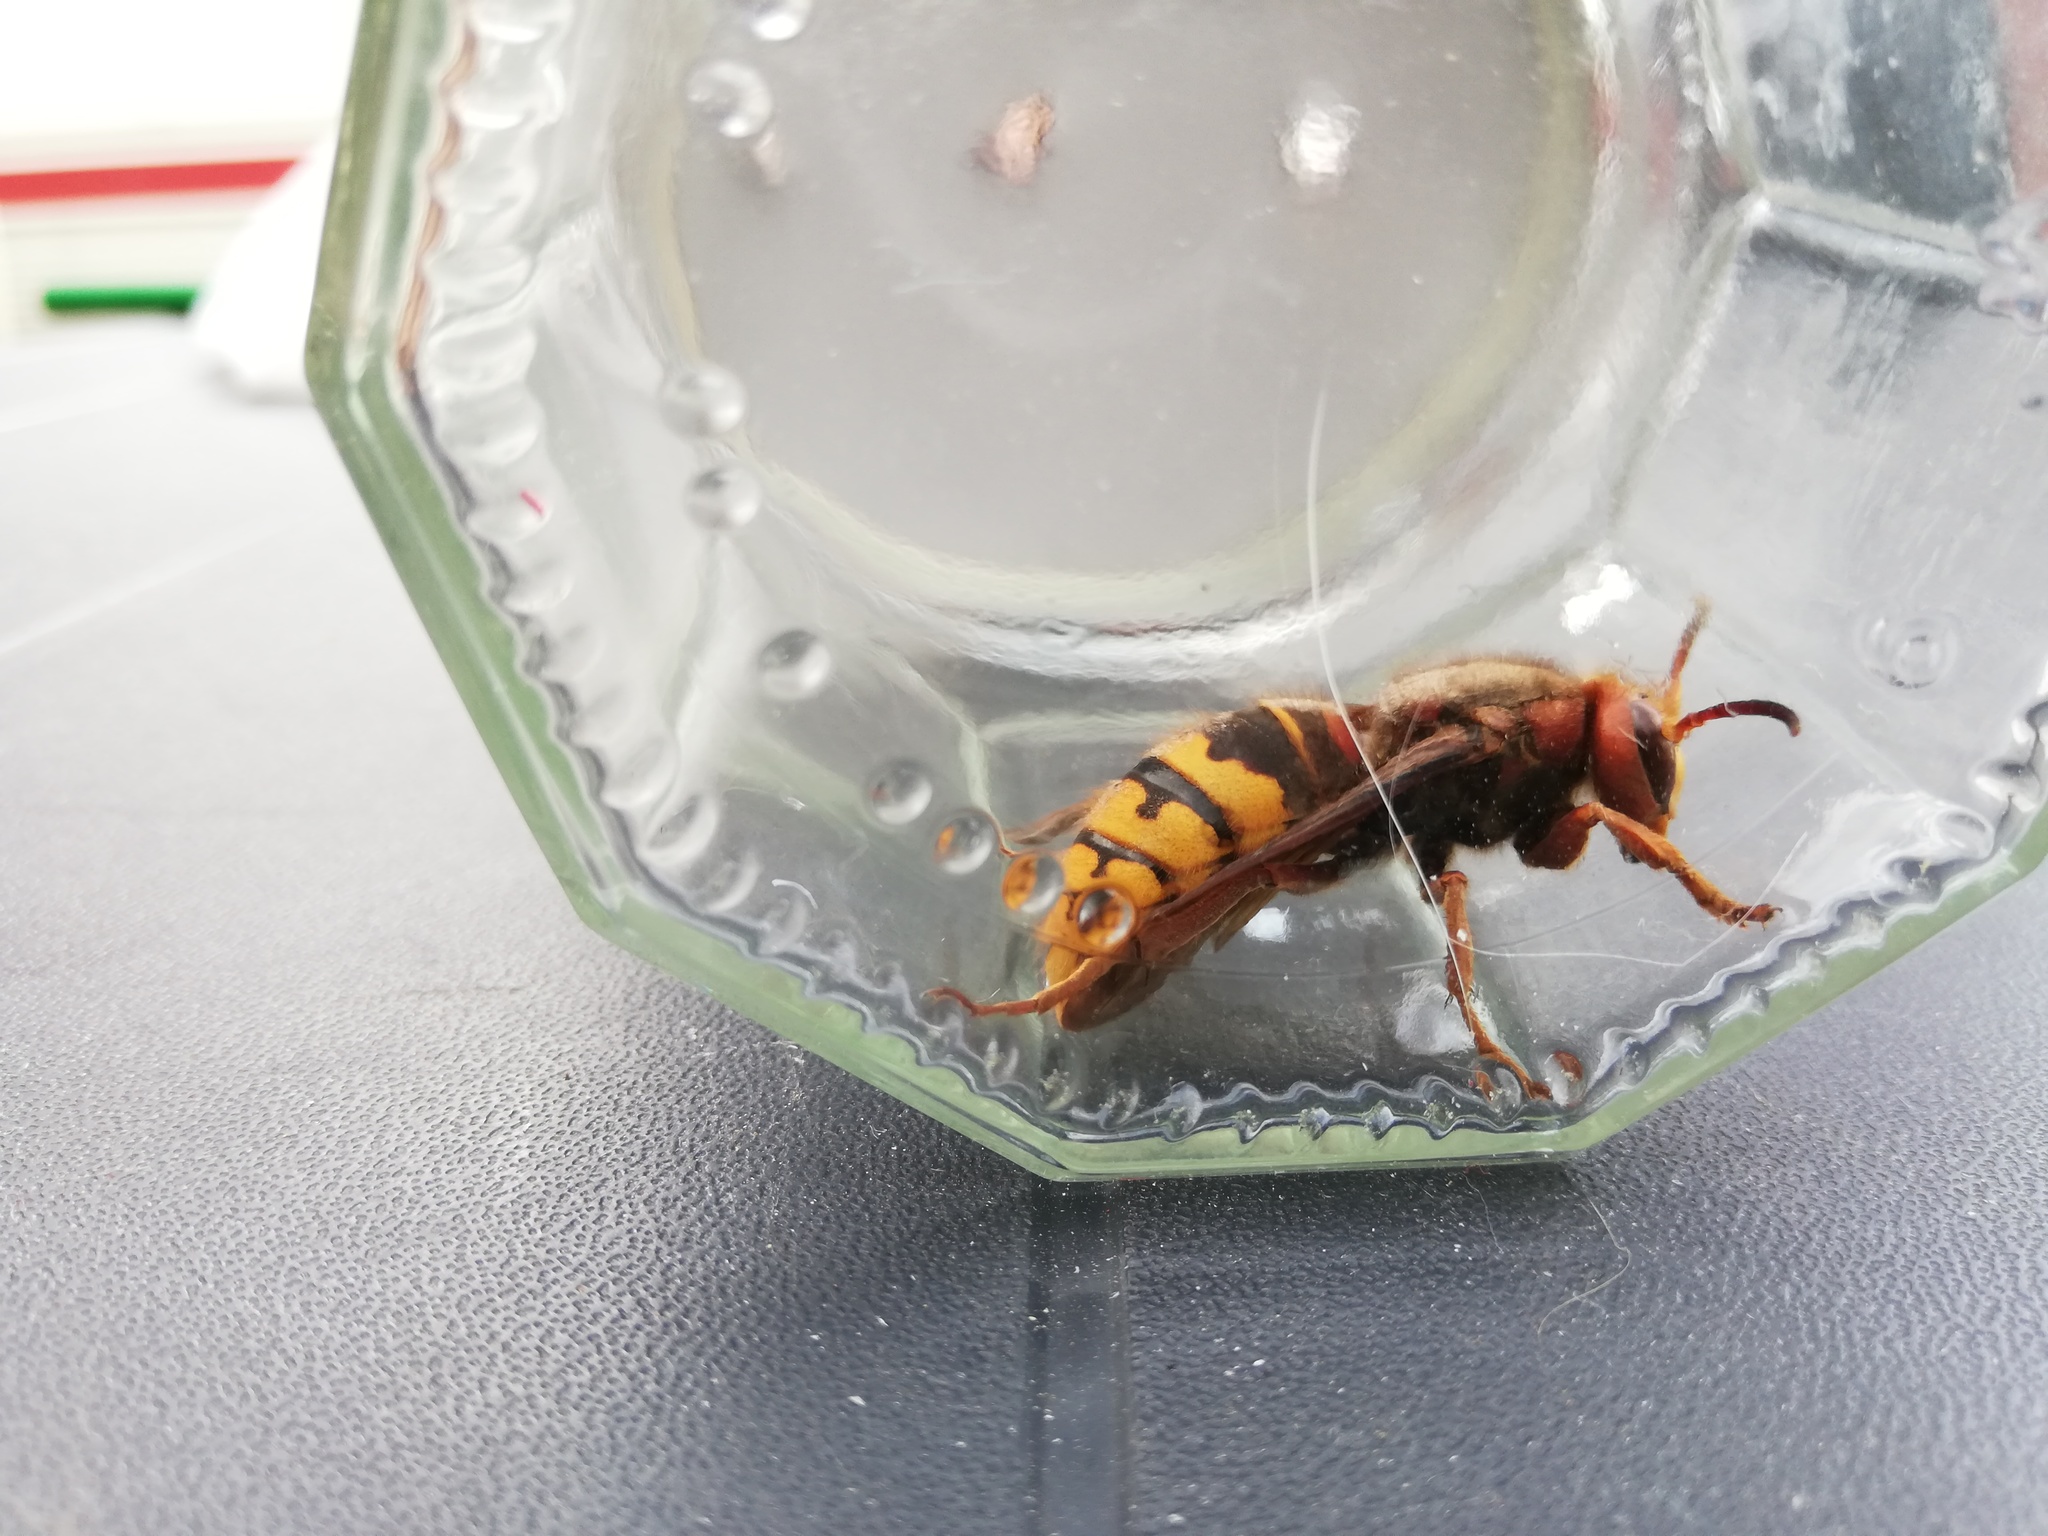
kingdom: Animalia
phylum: Arthropoda
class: Insecta
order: Hymenoptera
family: Vespidae
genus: Vespa
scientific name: Vespa crabro
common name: Hornet
